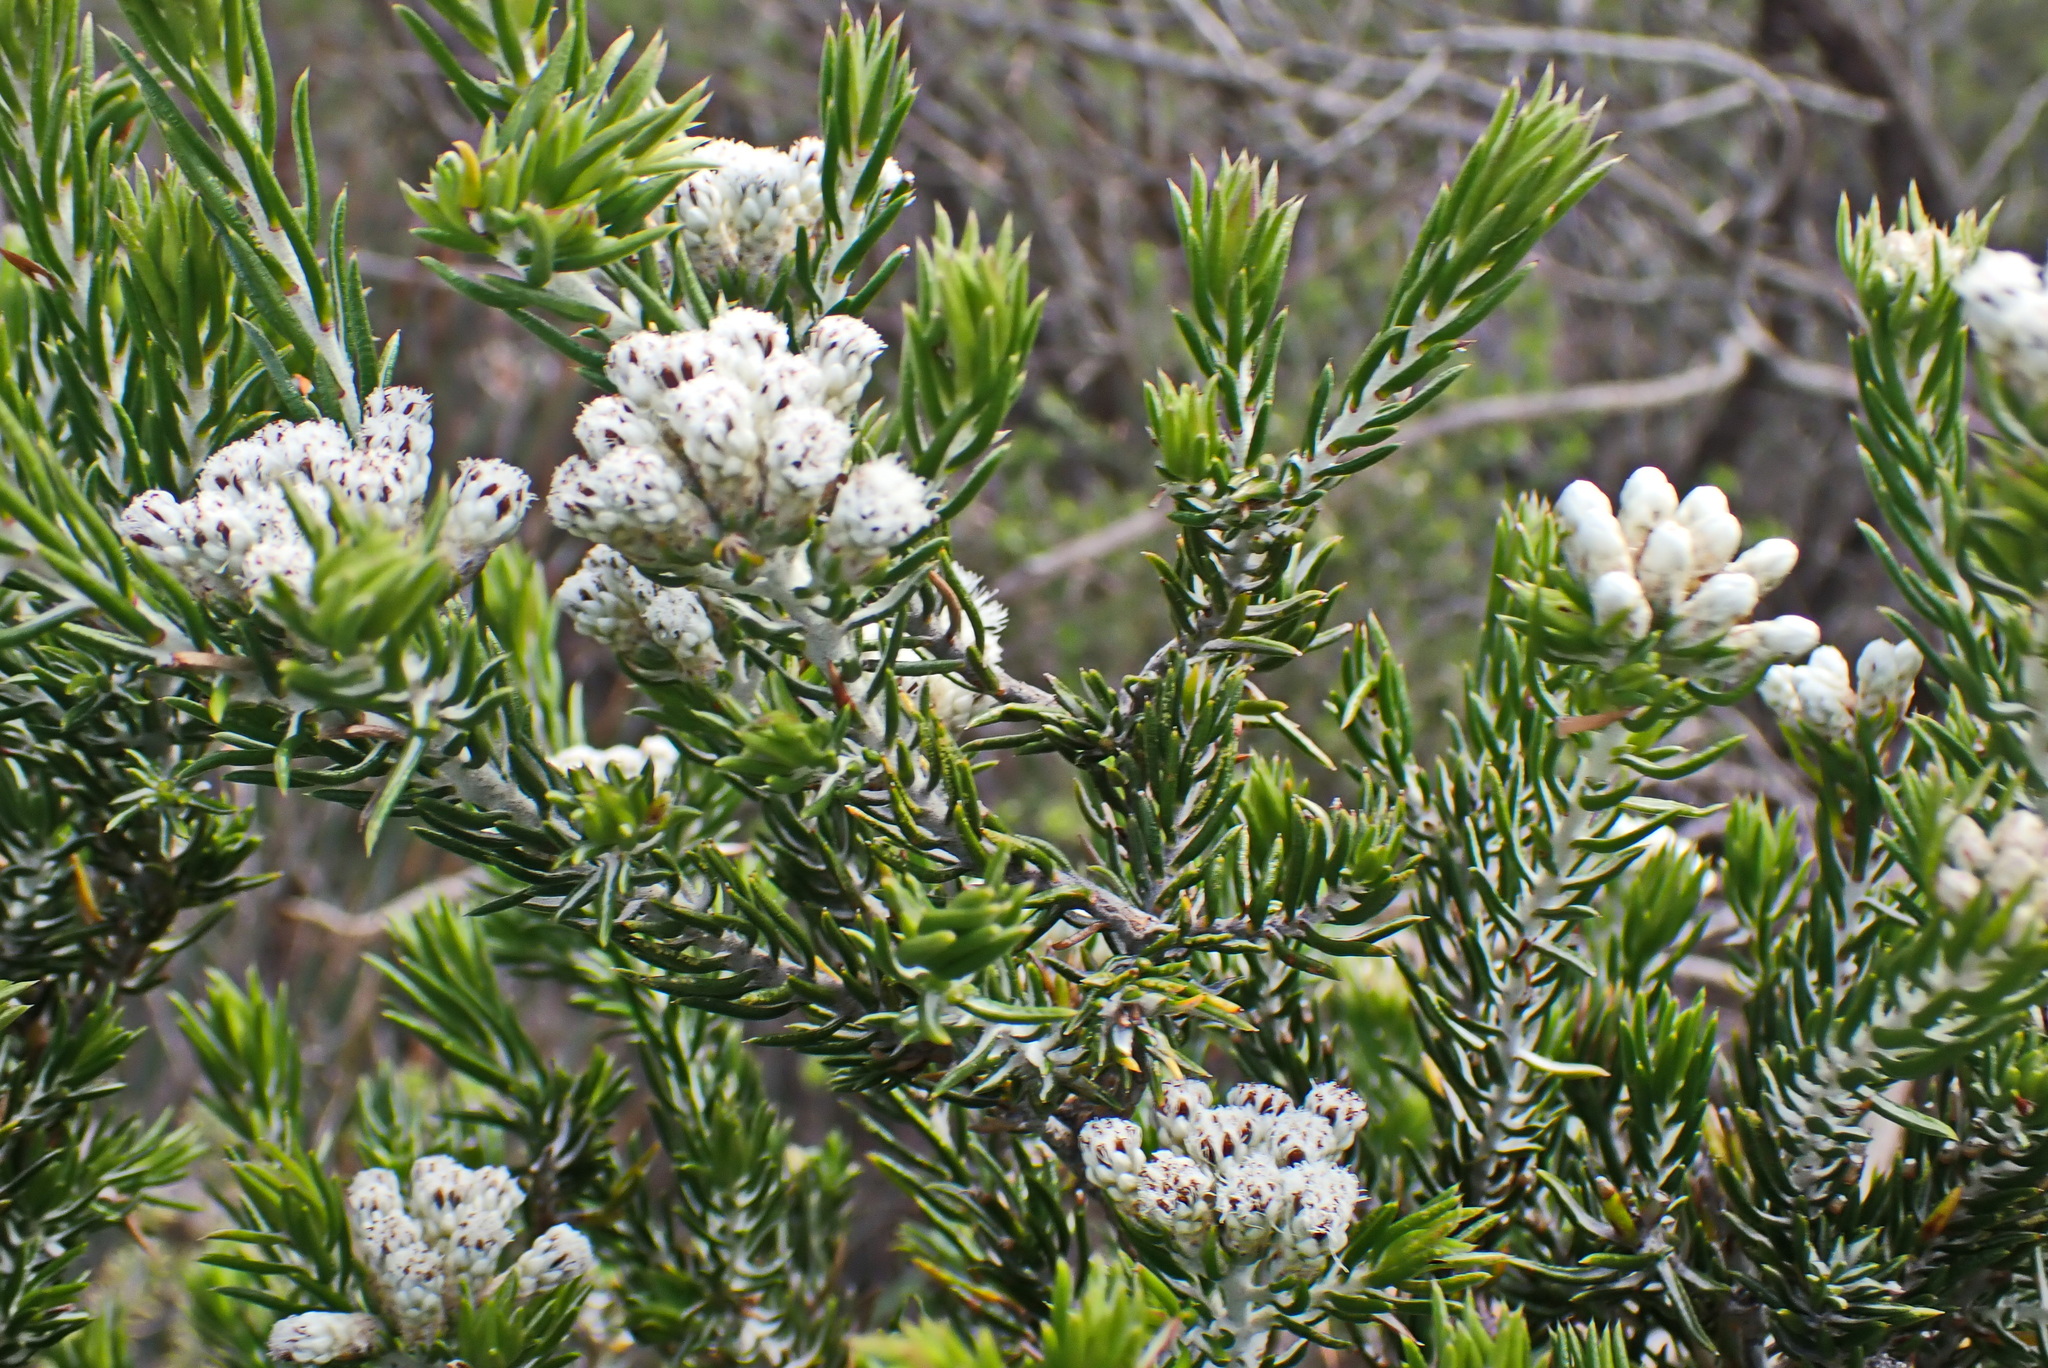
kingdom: Plantae
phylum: Tracheophyta
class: Magnoliopsida
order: Asterales
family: Asteraceae
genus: Metalasia
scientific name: Metalasia pallida
